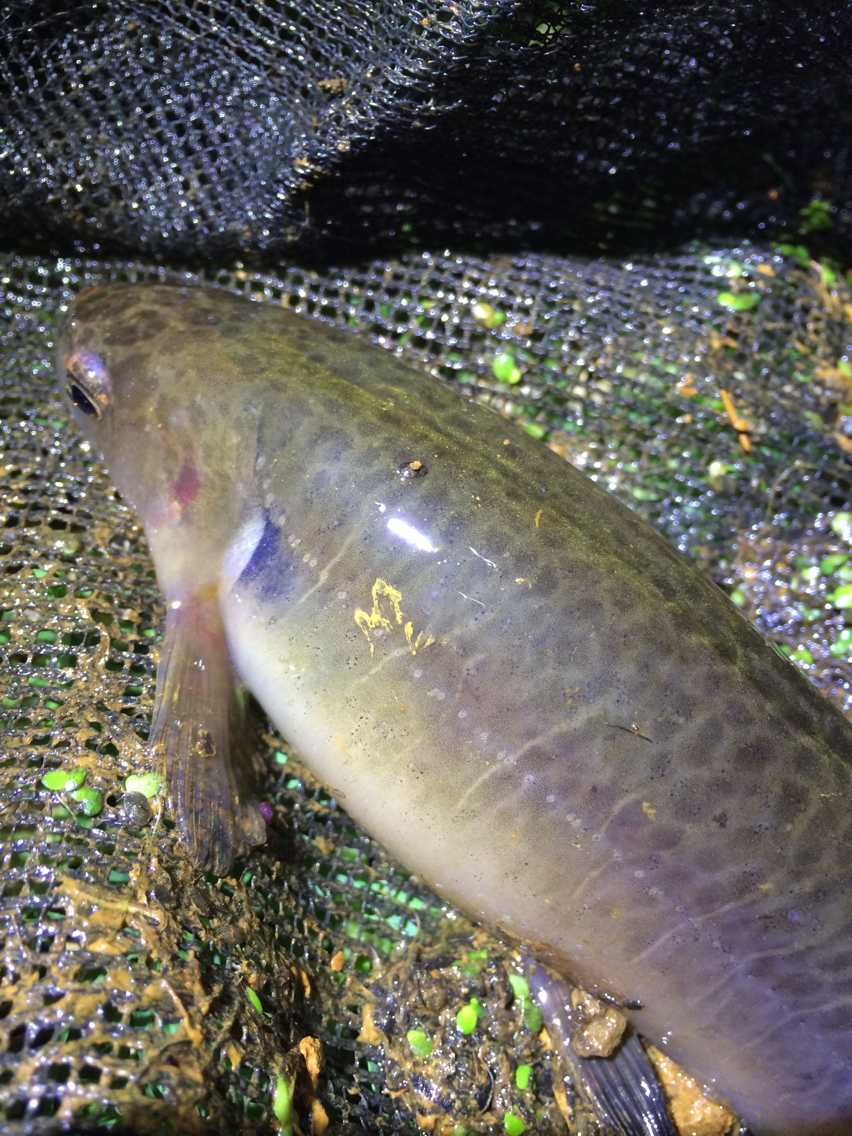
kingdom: Animalia
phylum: Chordata
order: Osmeriformes
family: Galaxiidae
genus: Galaxias
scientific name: Galaxias fasciatus
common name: Banded kokopu
